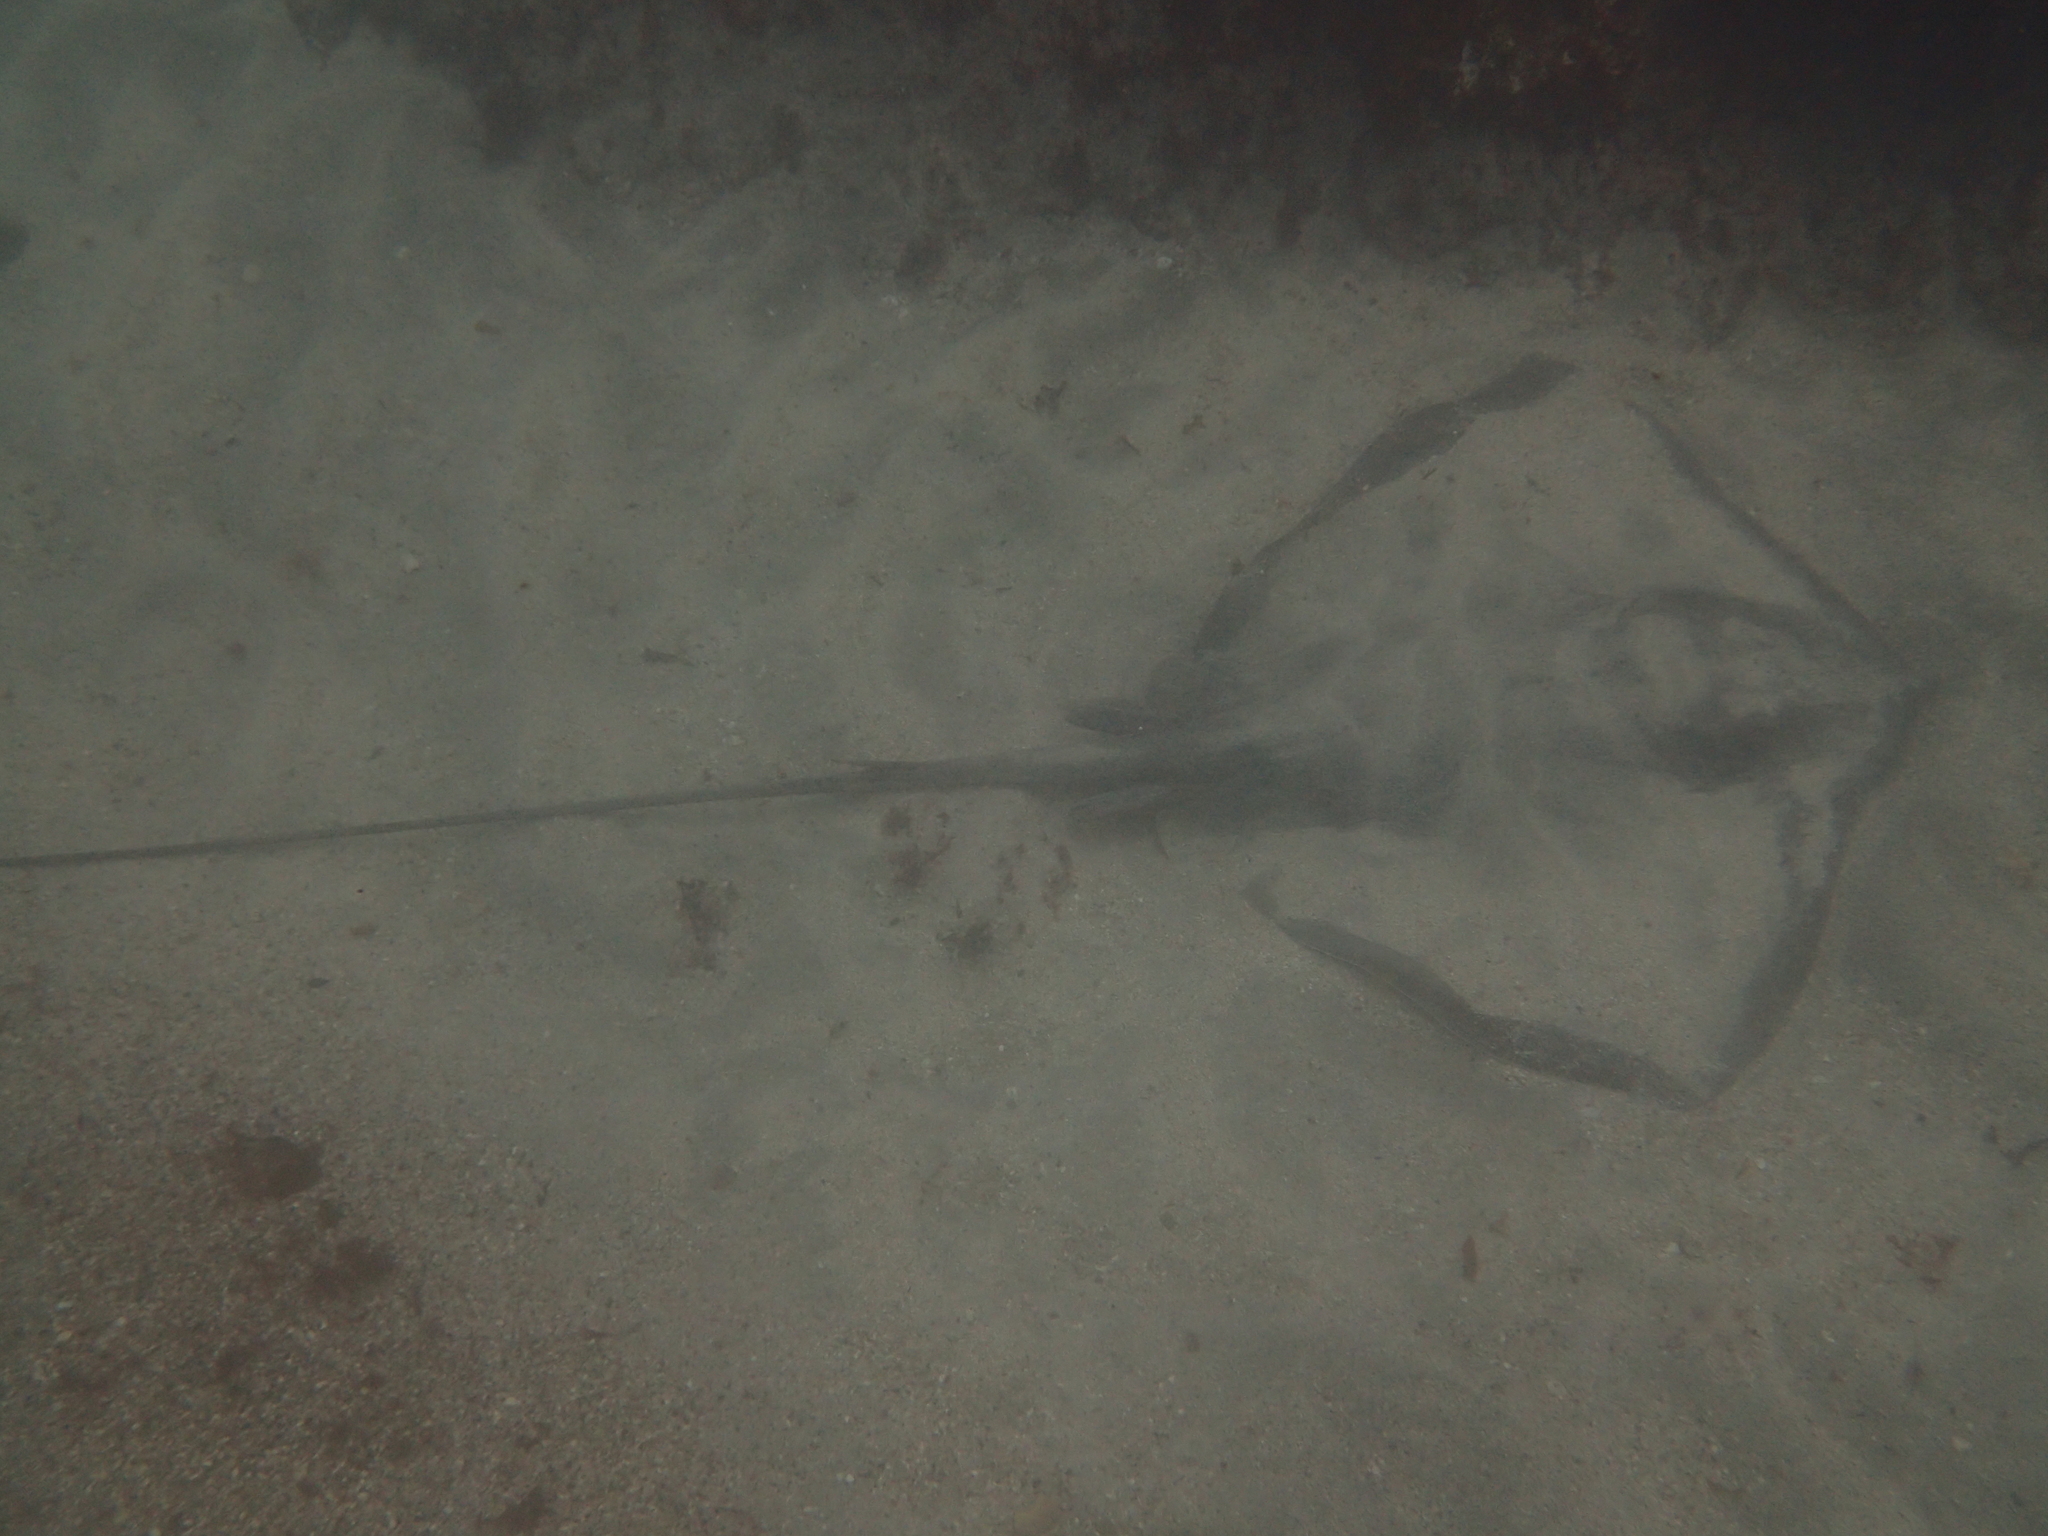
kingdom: Animalia
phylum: Chordata
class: Elasmobranchii
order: Myliobatiformes
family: Dasyatidae
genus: Bathytoshia
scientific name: Bathytoshia lata
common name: Brown stingray
